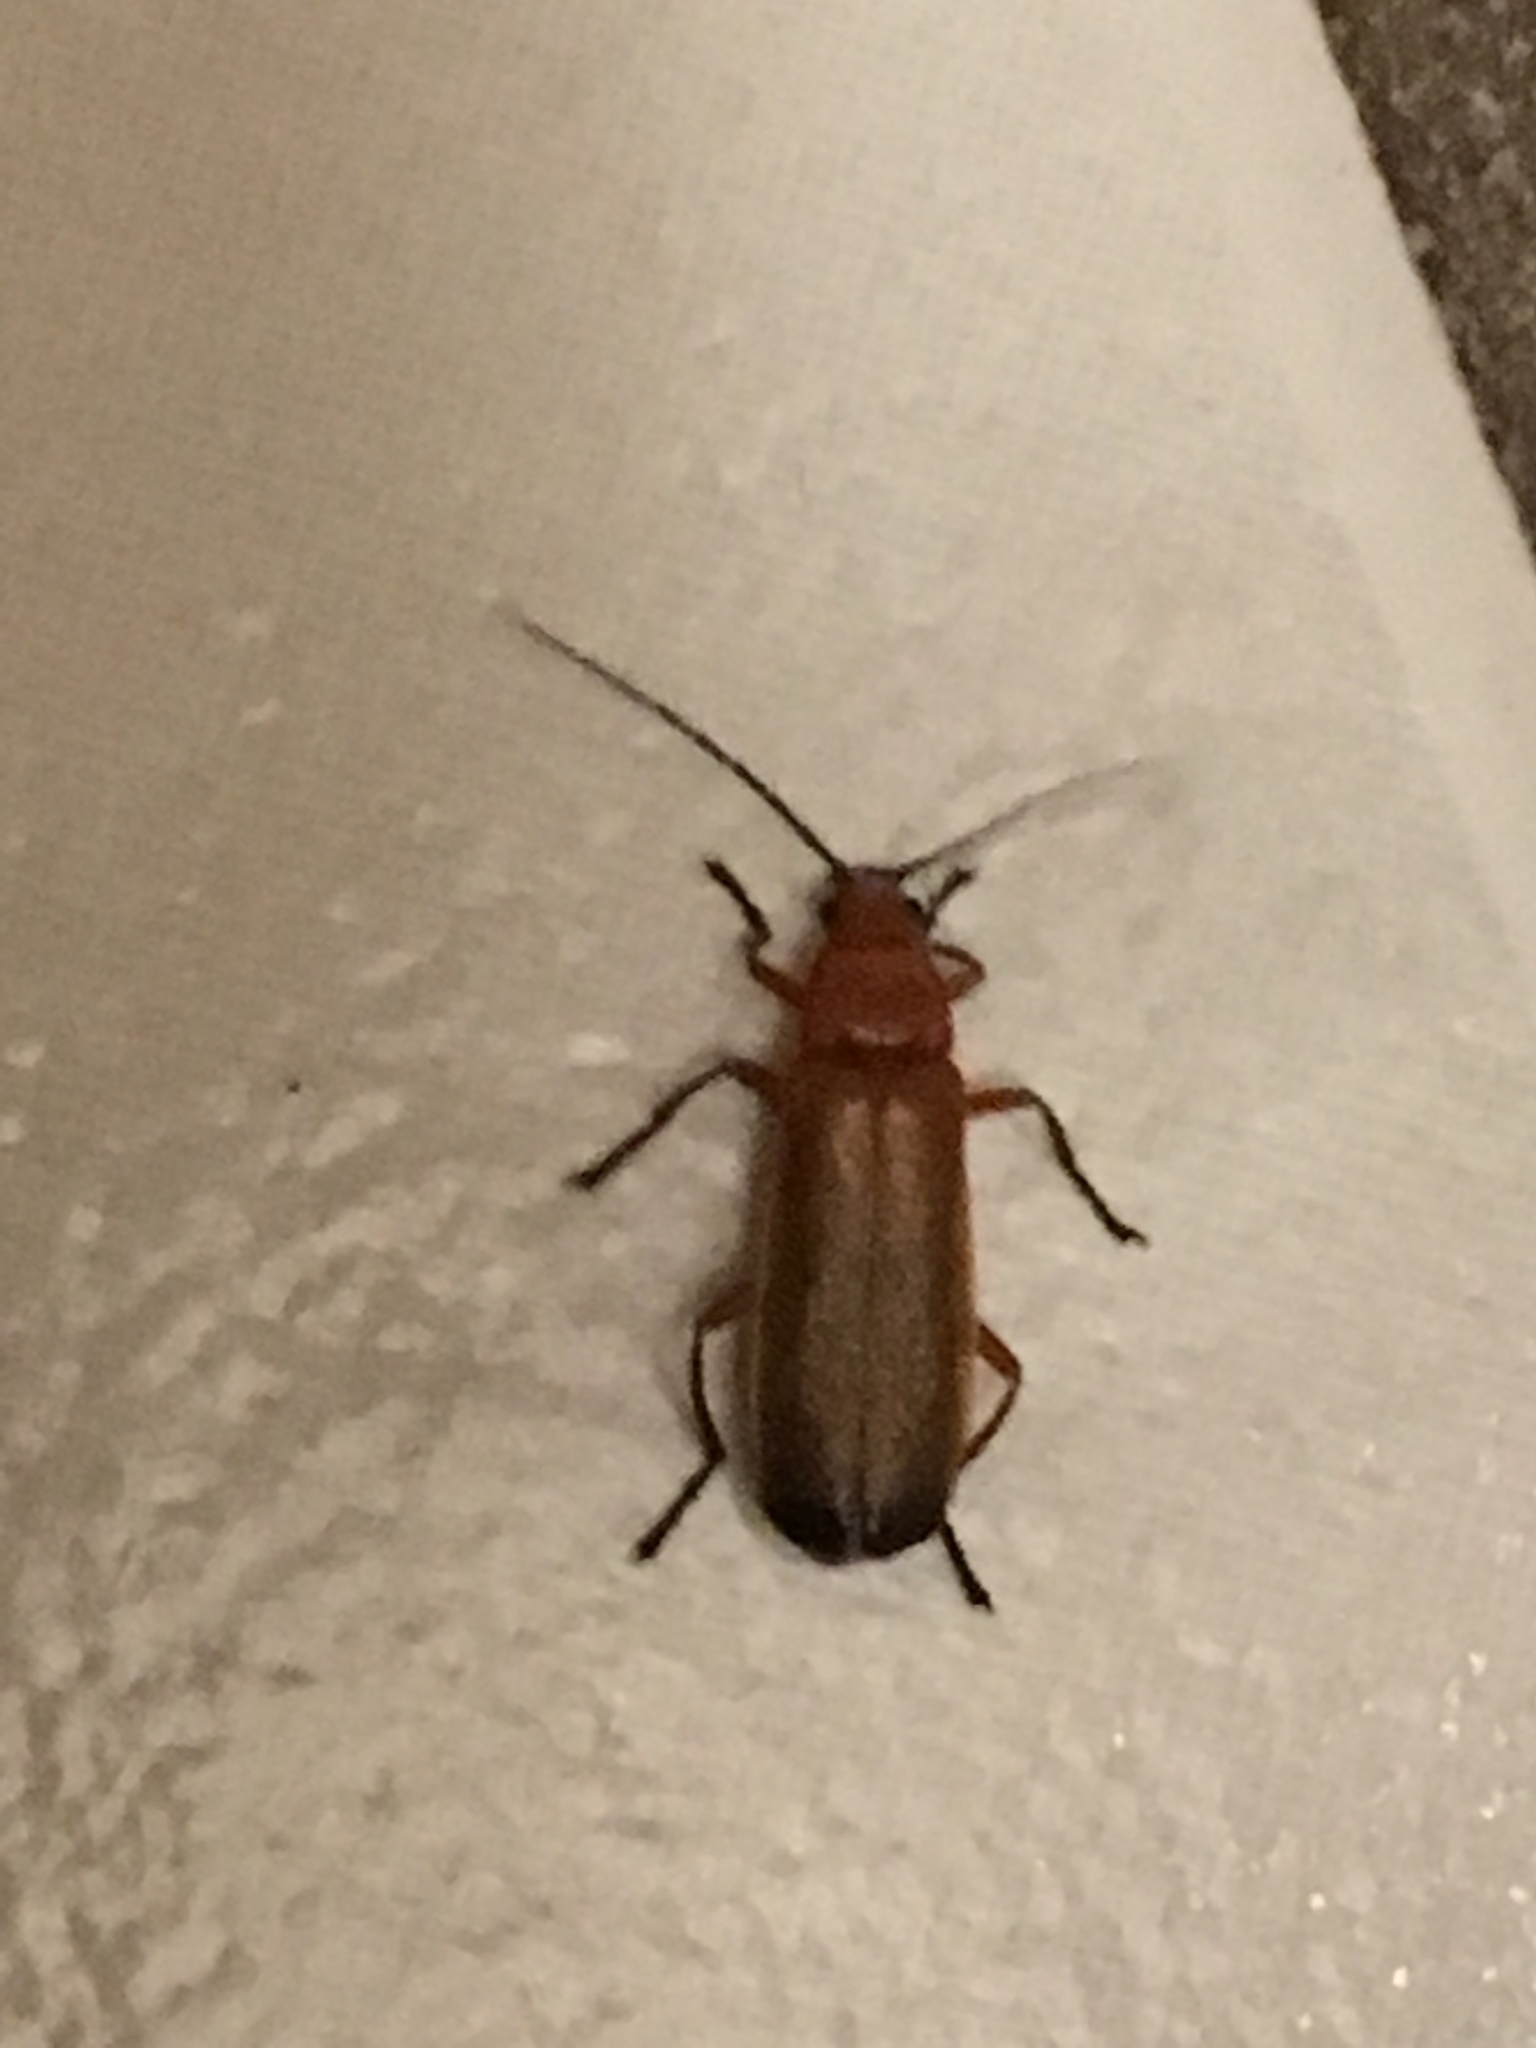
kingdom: Animalia
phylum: Arthropoda
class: Insecta
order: Coleoptera
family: Cantharidae
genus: Rhagonycha
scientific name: Rhagonycha fulva
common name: Common red soldier beetle
